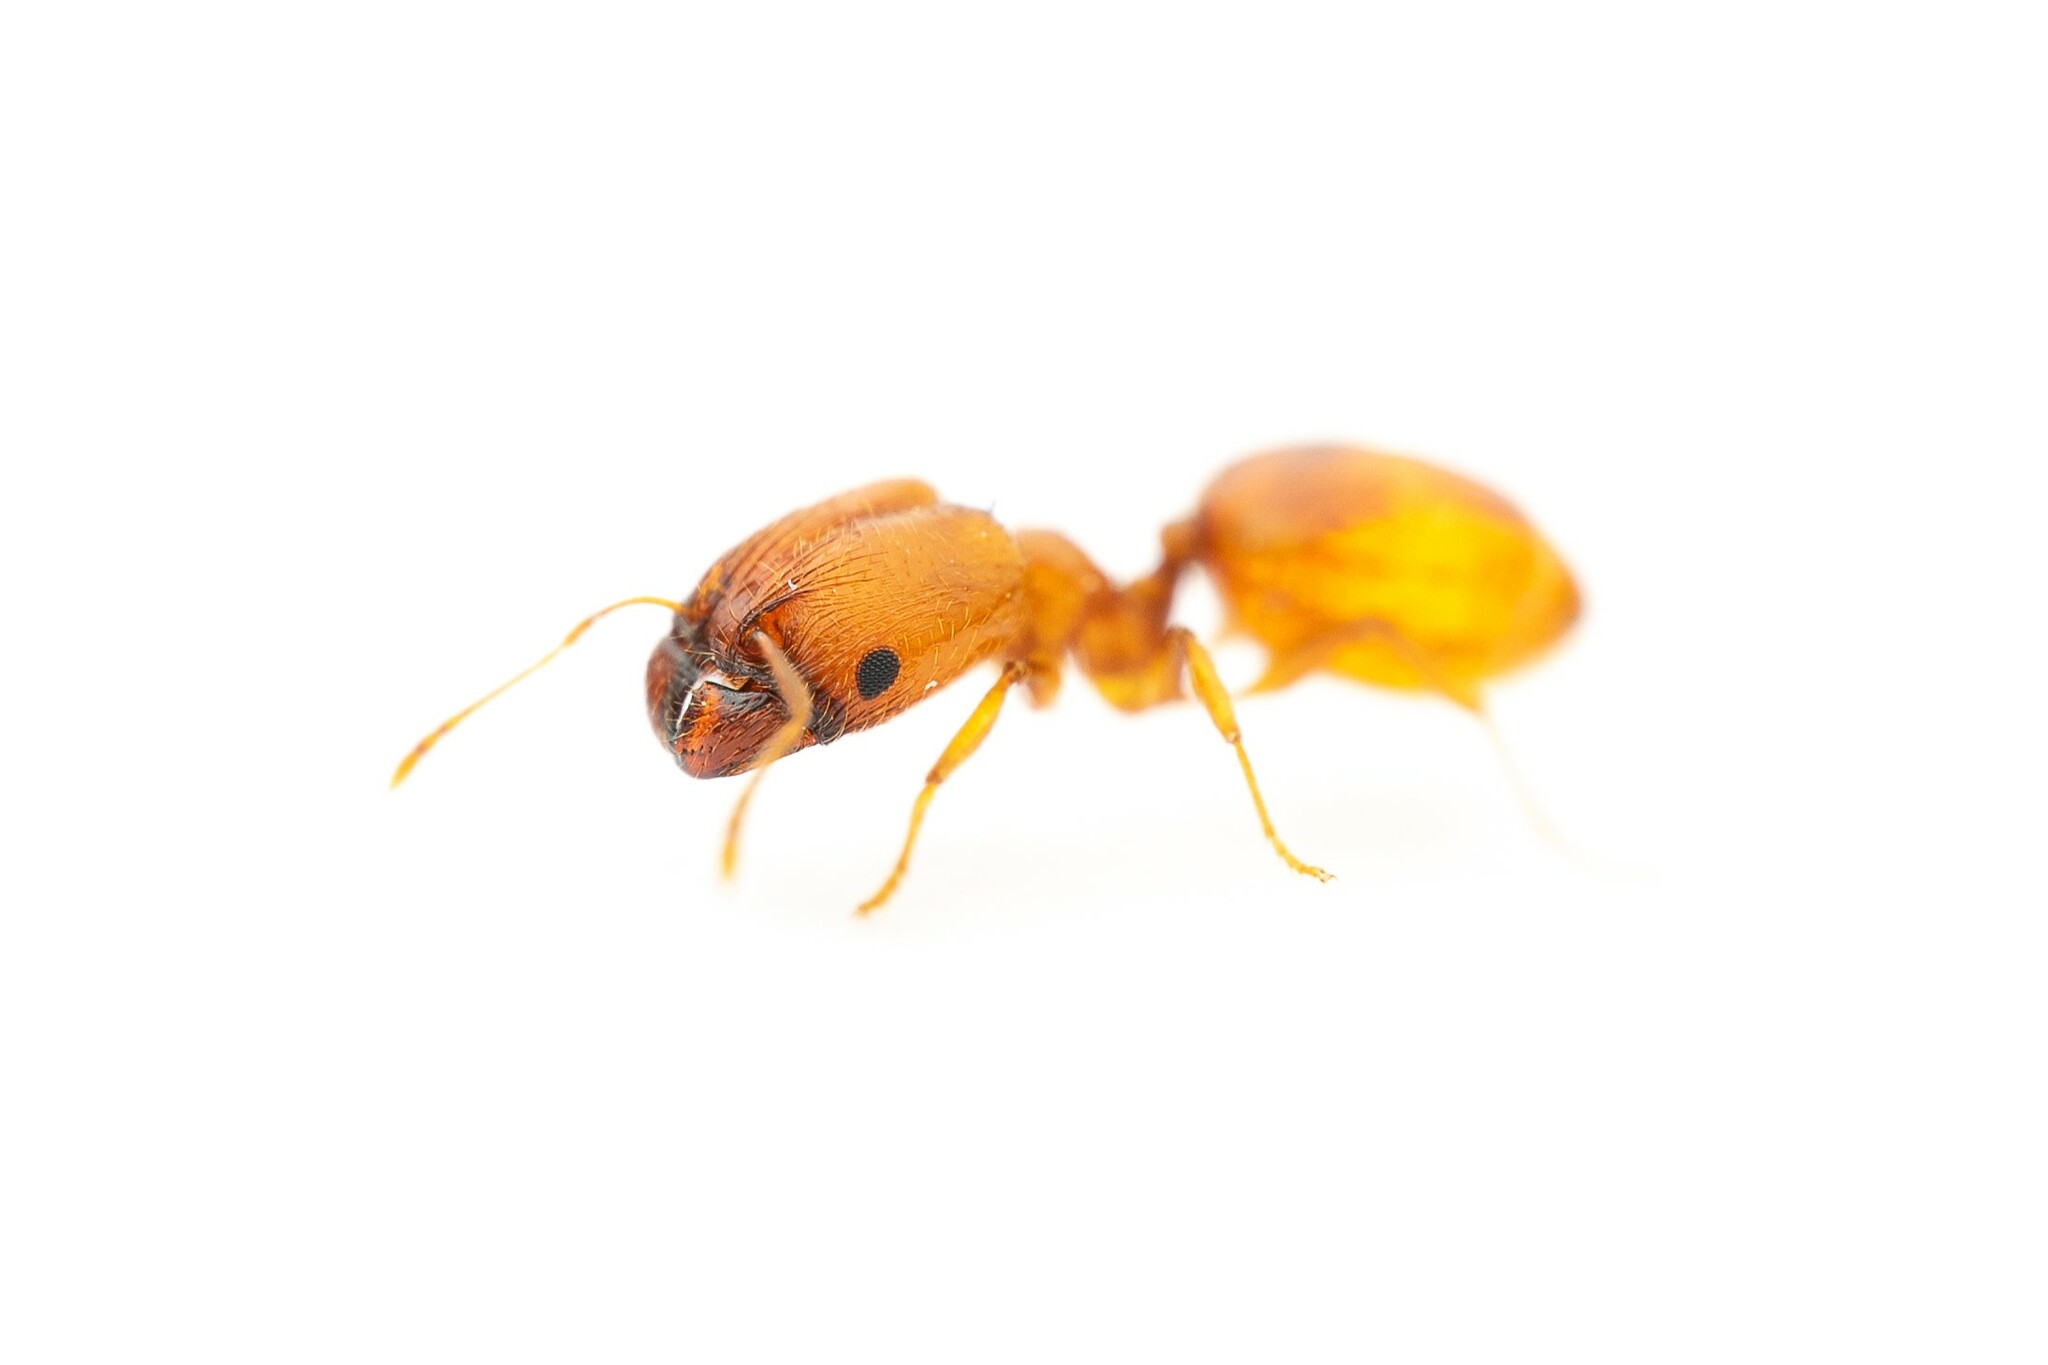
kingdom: Animalia
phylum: Arthropoda
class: Insecta
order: Hymenoptera
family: Formicidae
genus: Pheidole
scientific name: Pheidole micula
